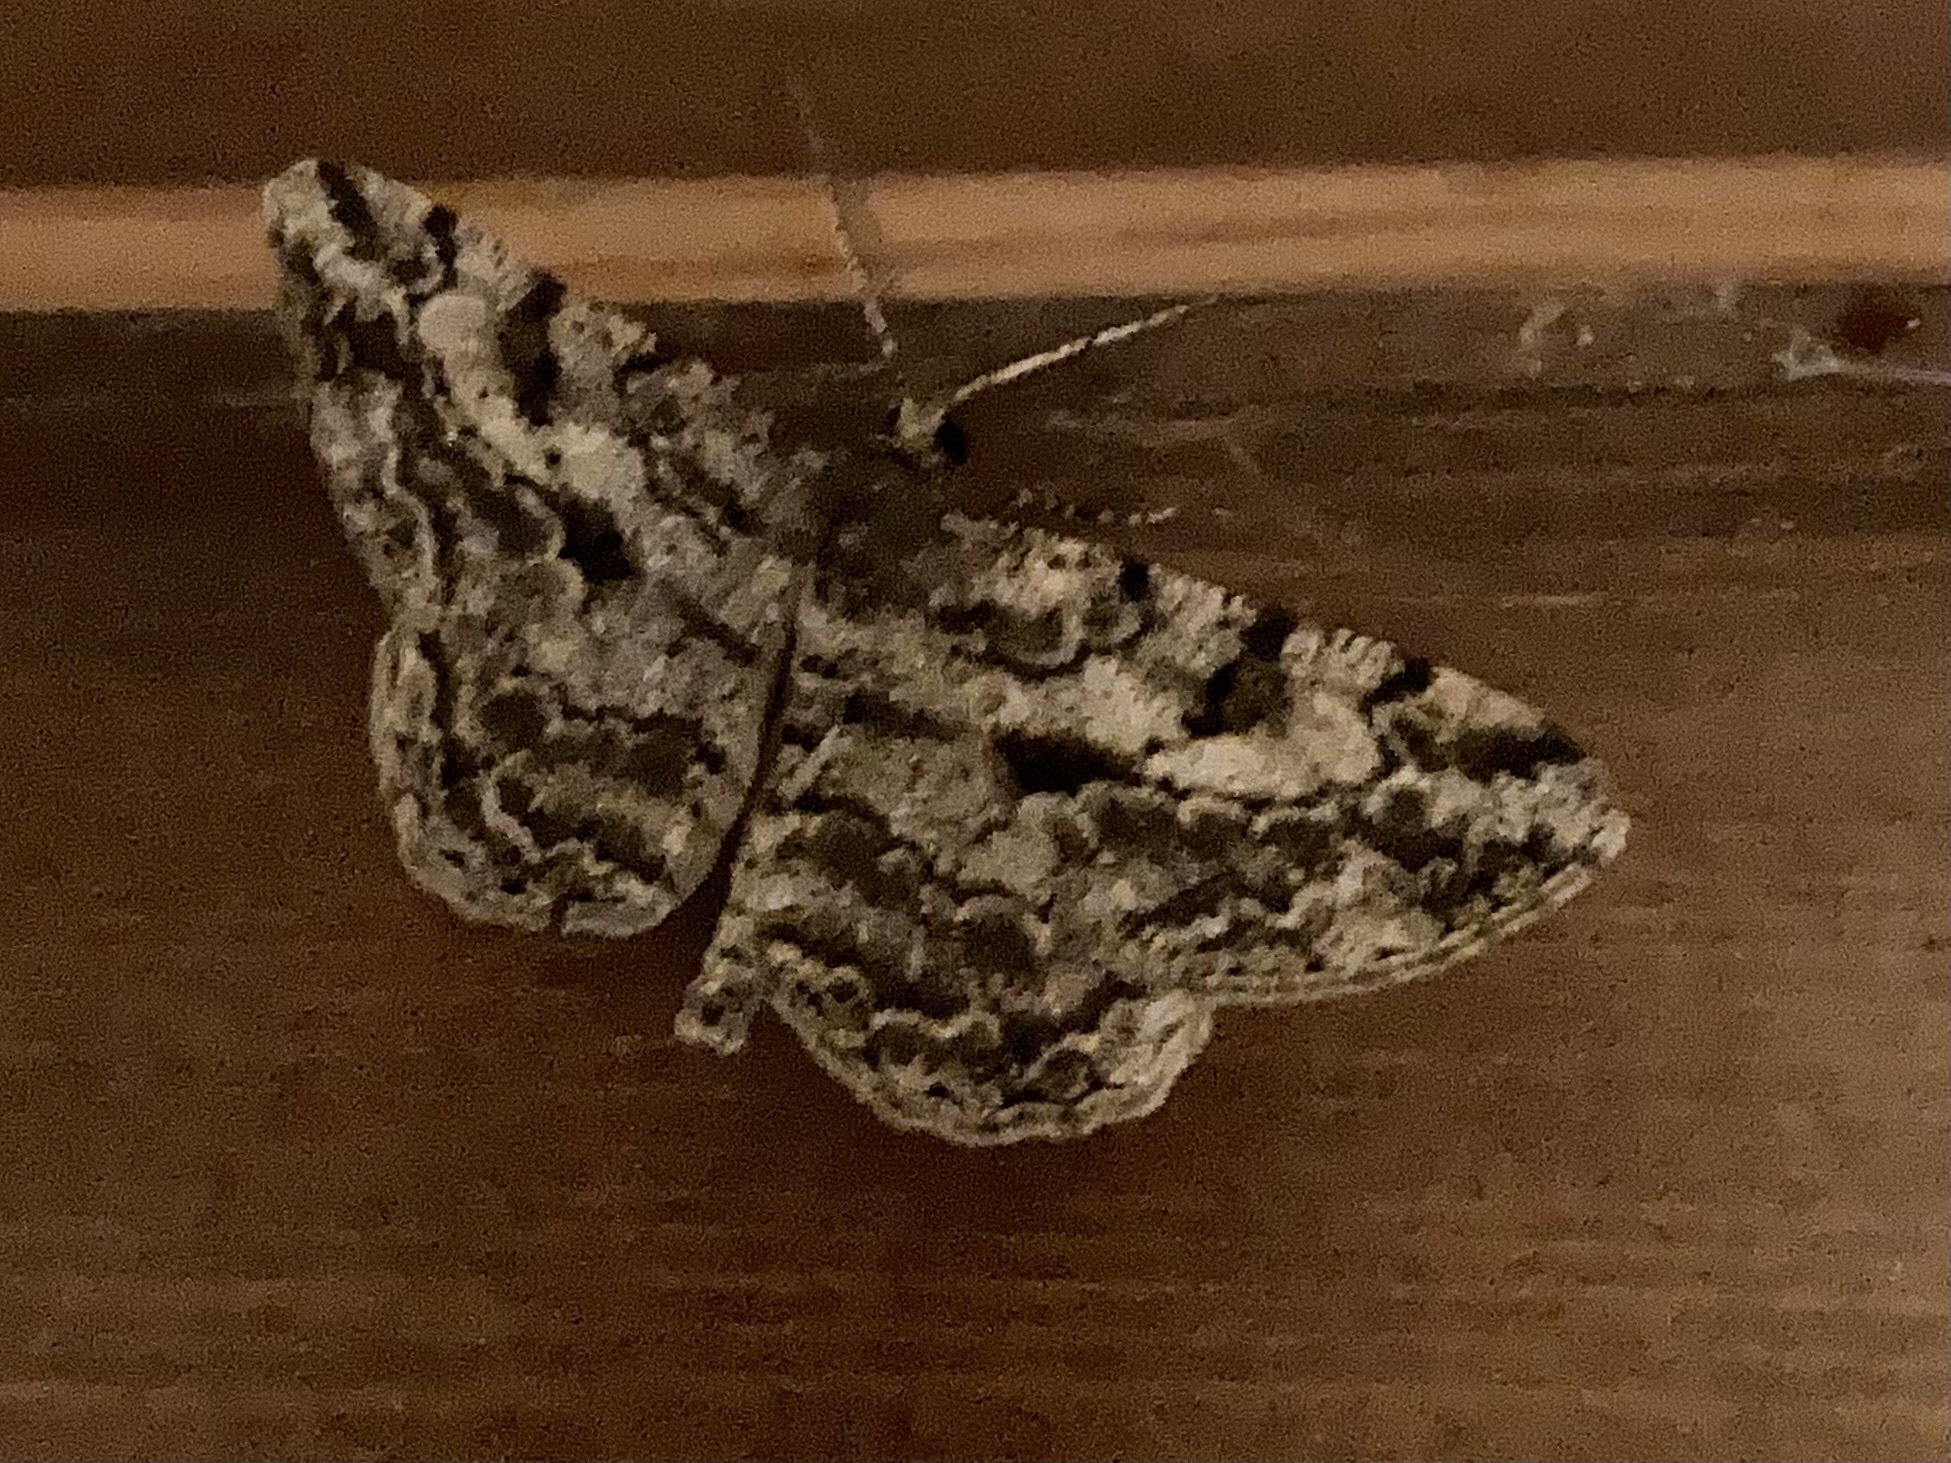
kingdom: Animalia
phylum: Arthropoda
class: Insecta
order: Lepidoptera
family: Geometridae
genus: Peribatodes
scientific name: Peribatodes rhomboidaria
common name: Willow beauty
